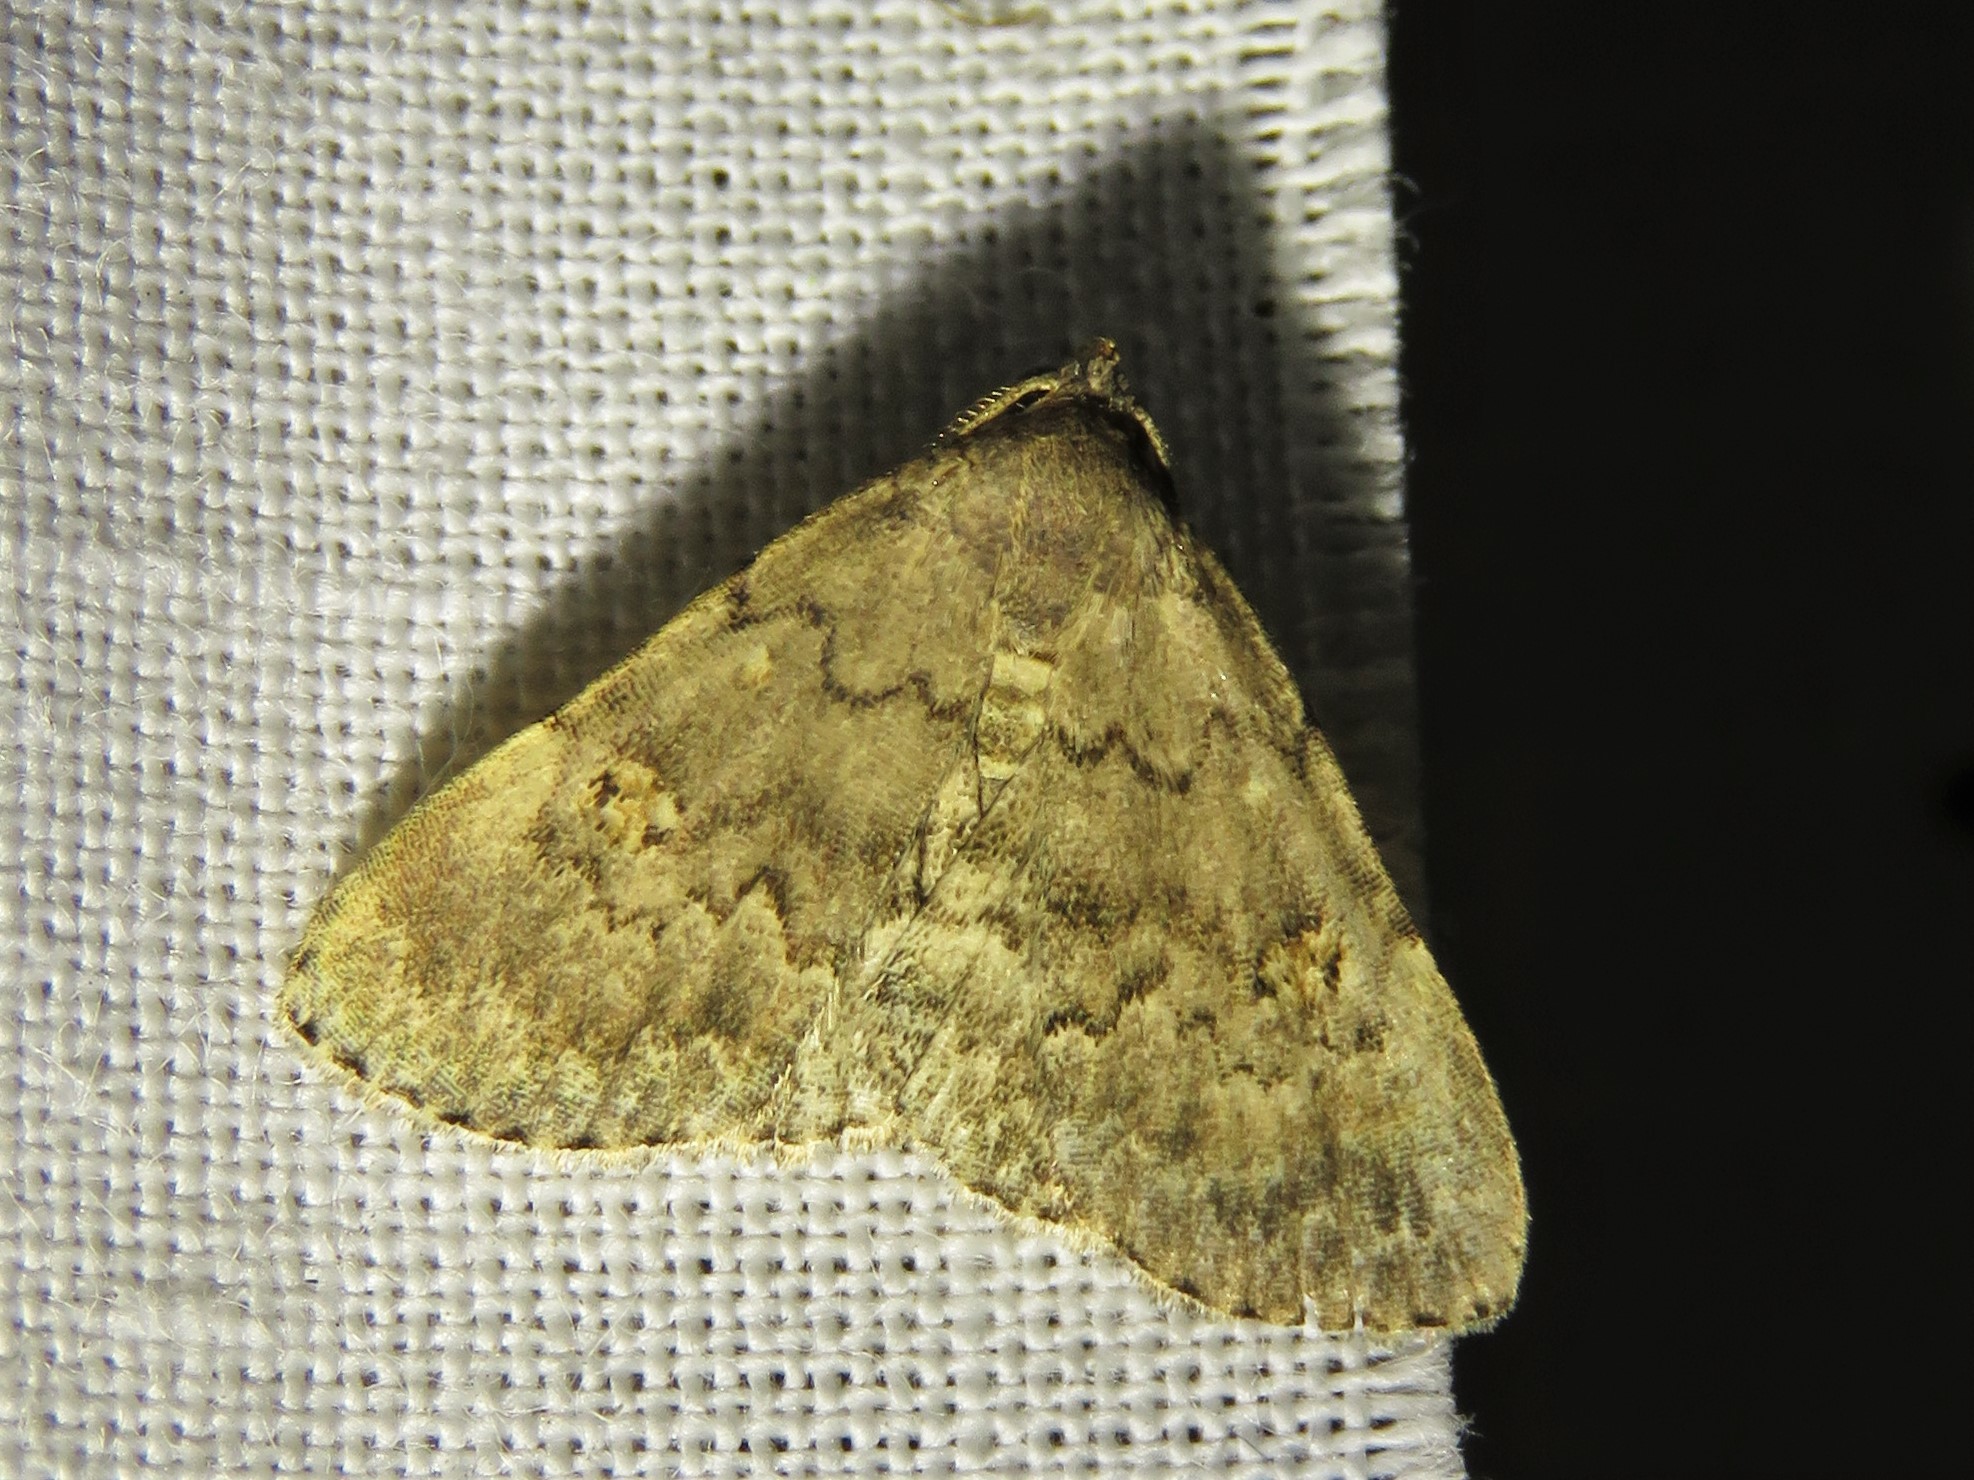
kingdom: Animalia
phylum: Arthropoda
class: Insecta
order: Lepidoptera
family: Erebidae
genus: Idia
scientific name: Idia aemula
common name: Common idia moth
